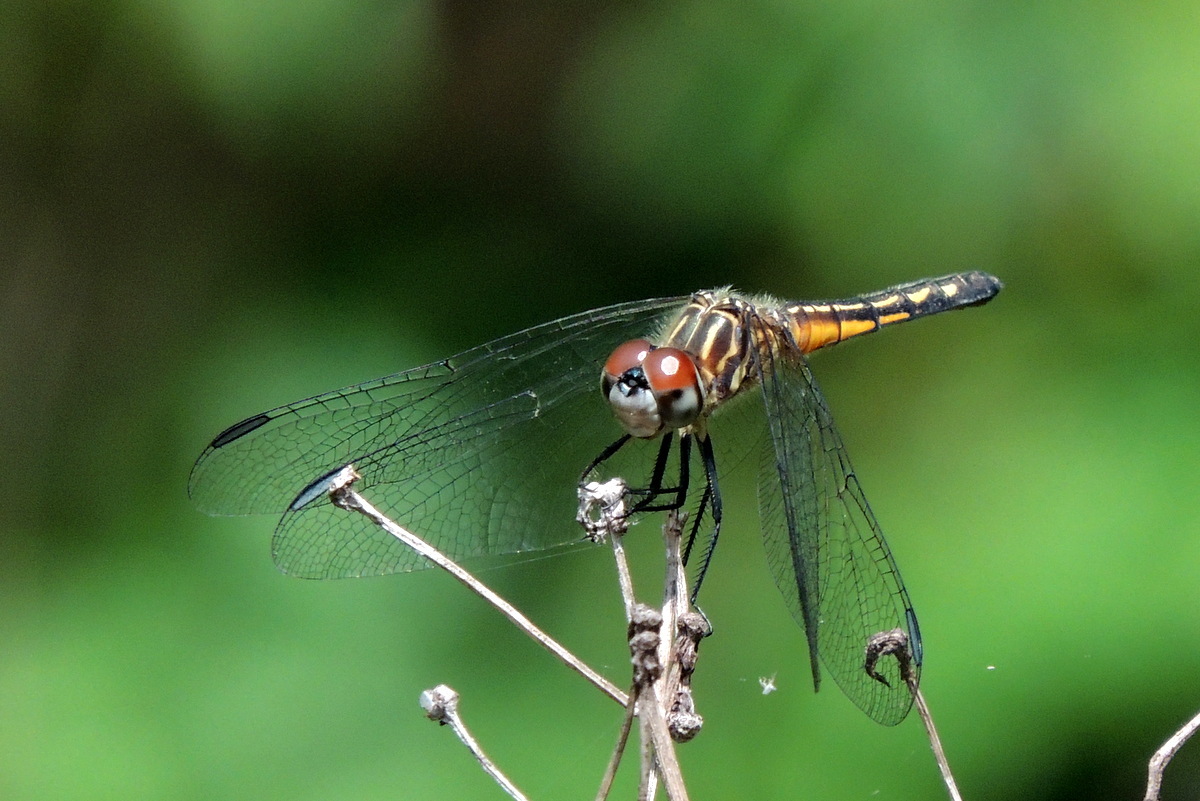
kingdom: Animalia
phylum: Arthropoda
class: Insecta
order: Odonata
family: Libellulidae
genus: Pachydiplax
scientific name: Pachydiplax longipennis
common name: Blue dasher
